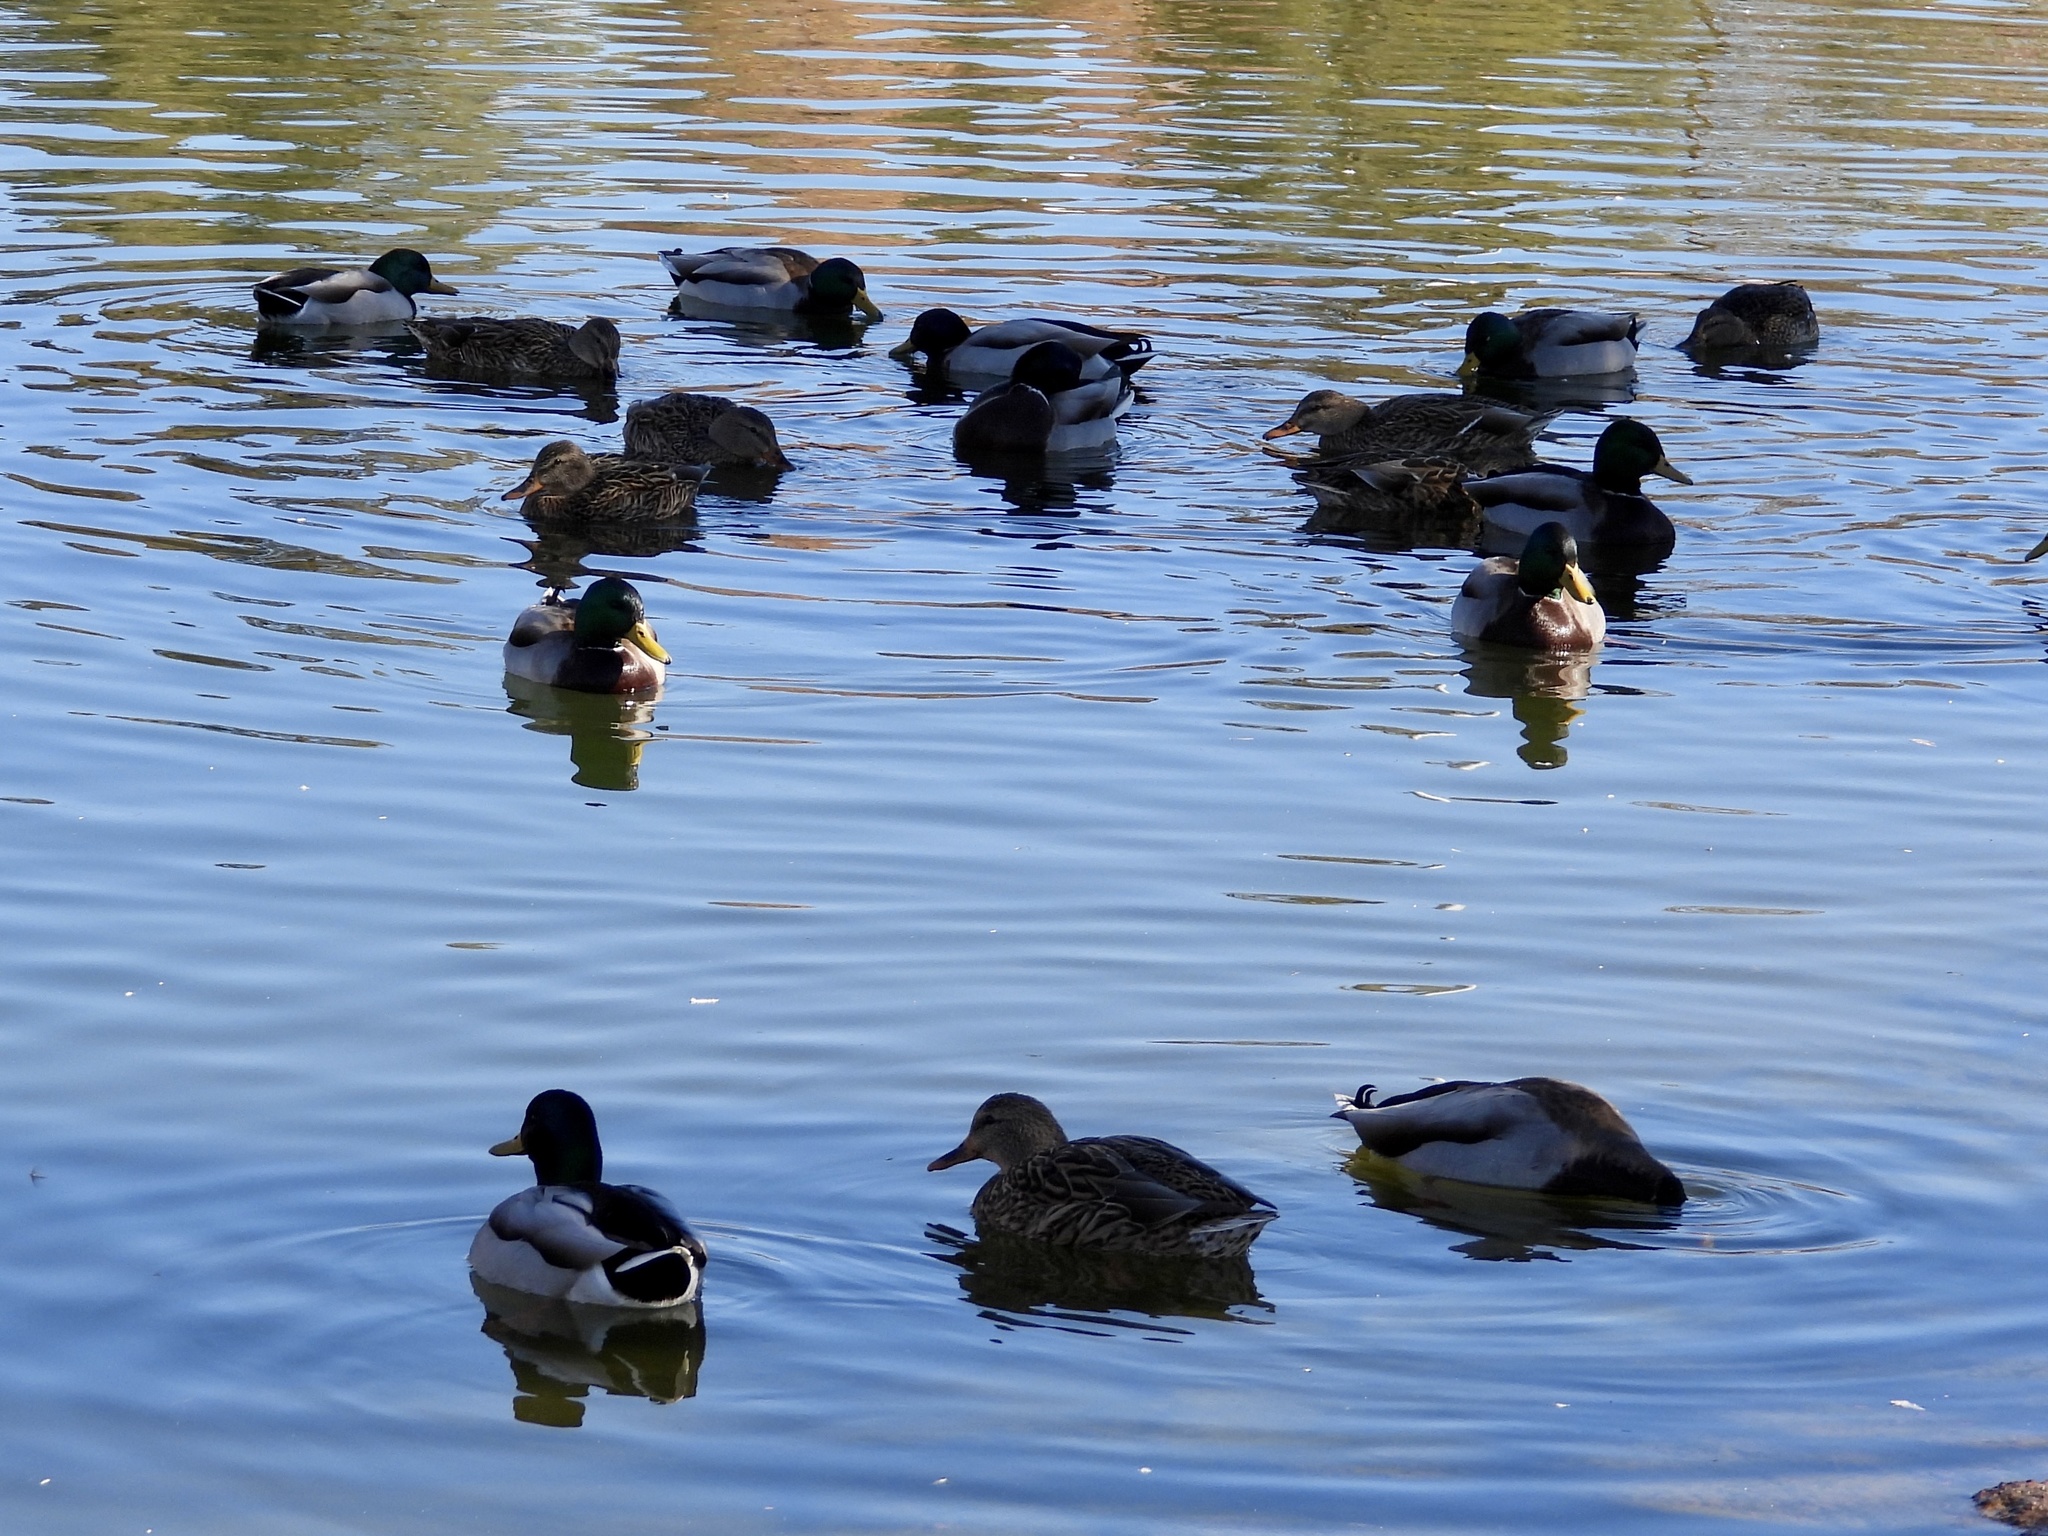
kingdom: Animalia
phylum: Chordata
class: Aves
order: Anseriformes
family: Anatidae
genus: Anas
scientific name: Anas platyrhynchos
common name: Mallard
